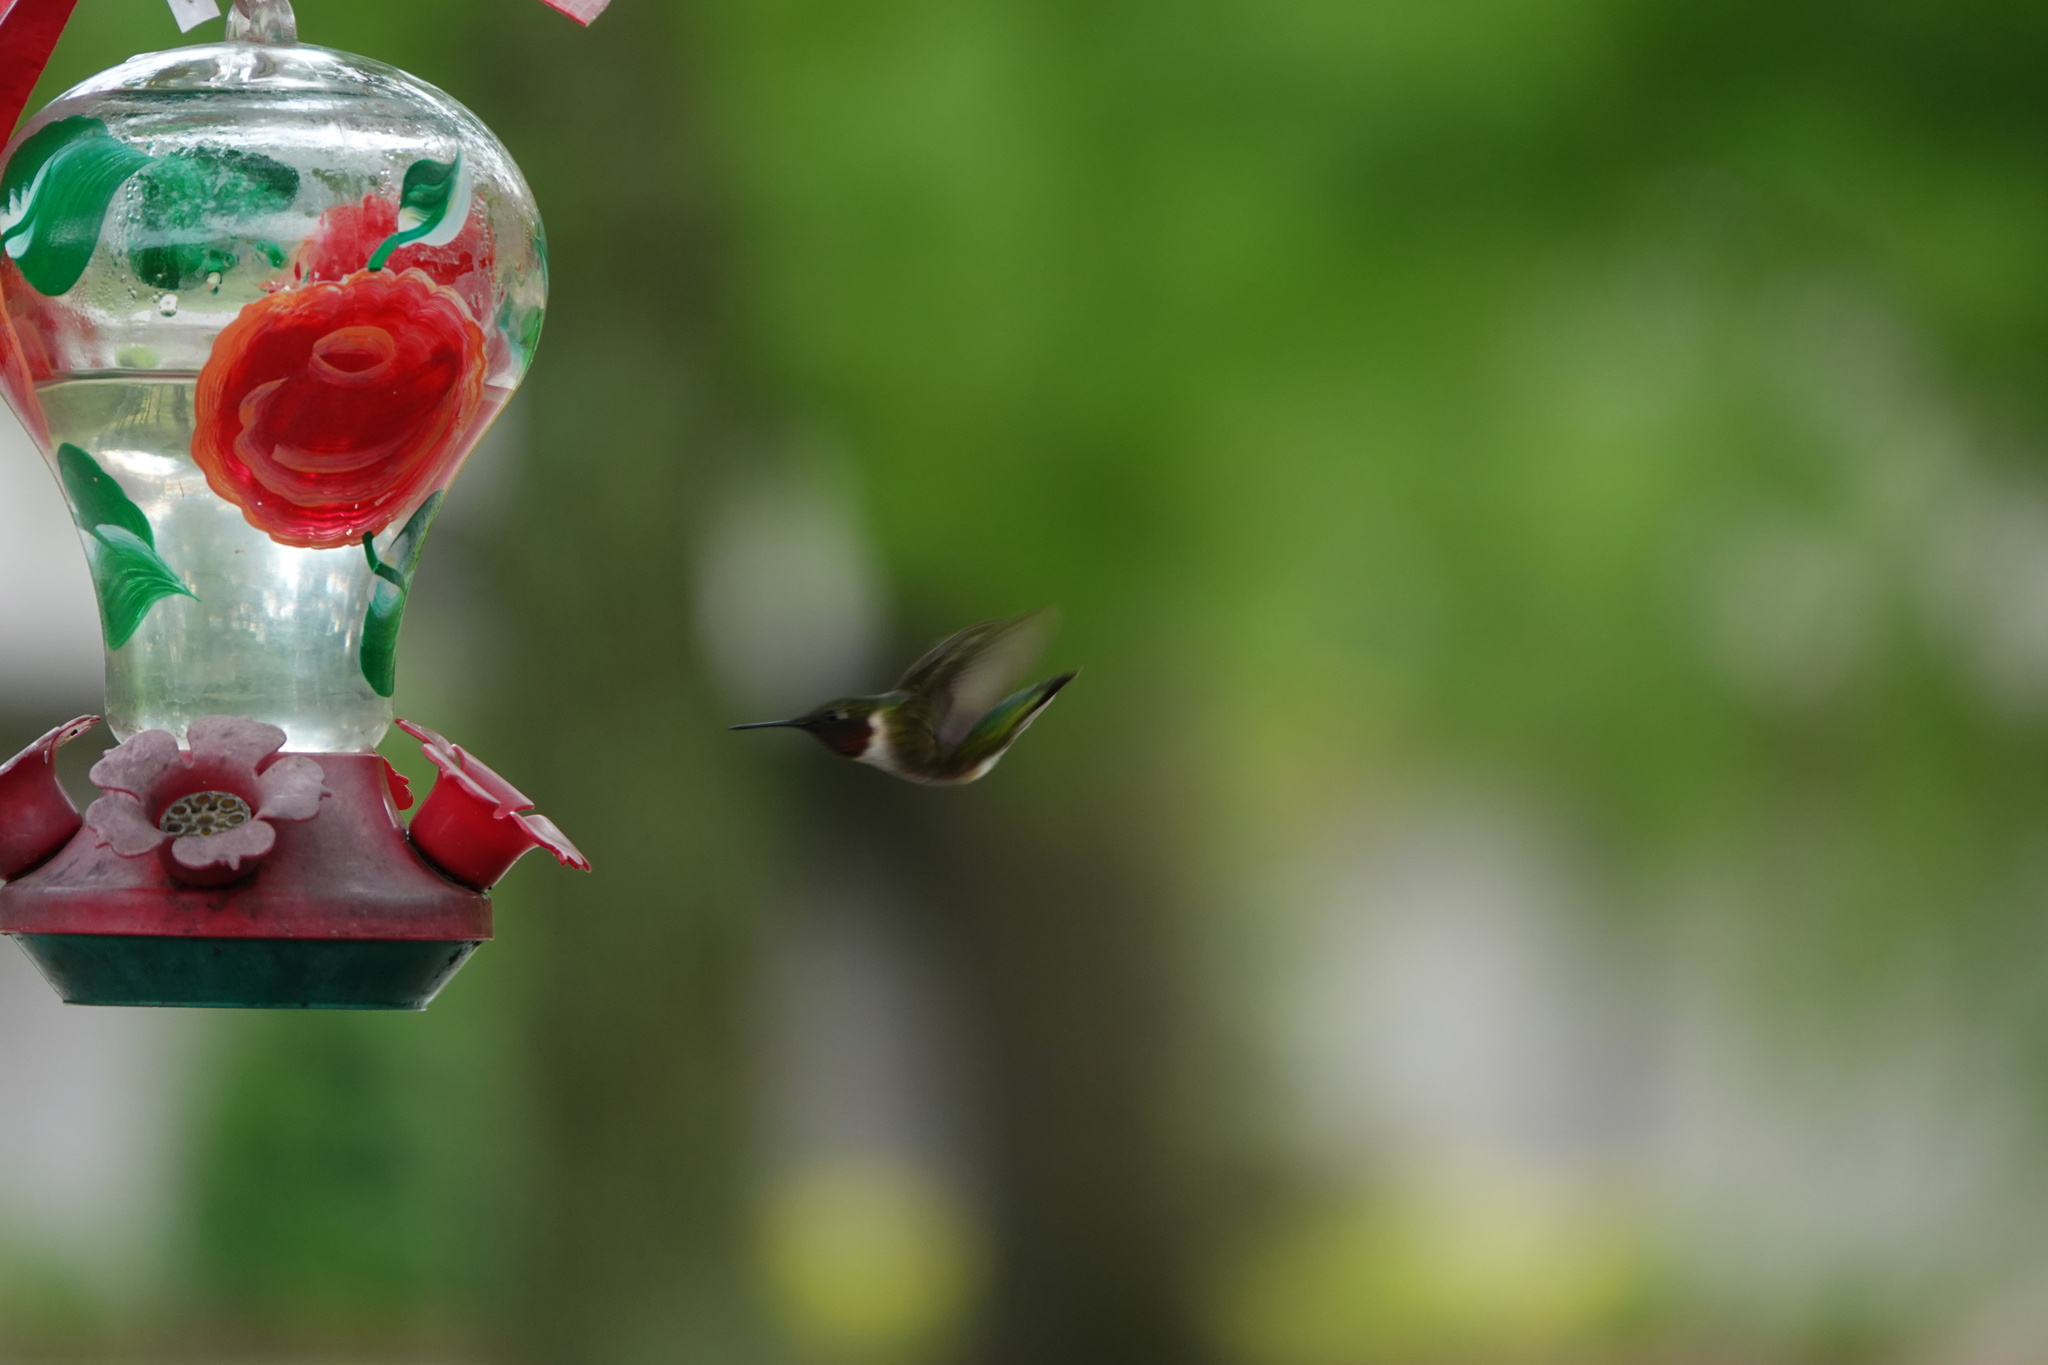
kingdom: Animalia
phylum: Chordata
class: Aves
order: Apodiformes
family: Trochilidae
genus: Archilochus
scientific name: Archilochus colubris
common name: Ruby-throated hummingbird
